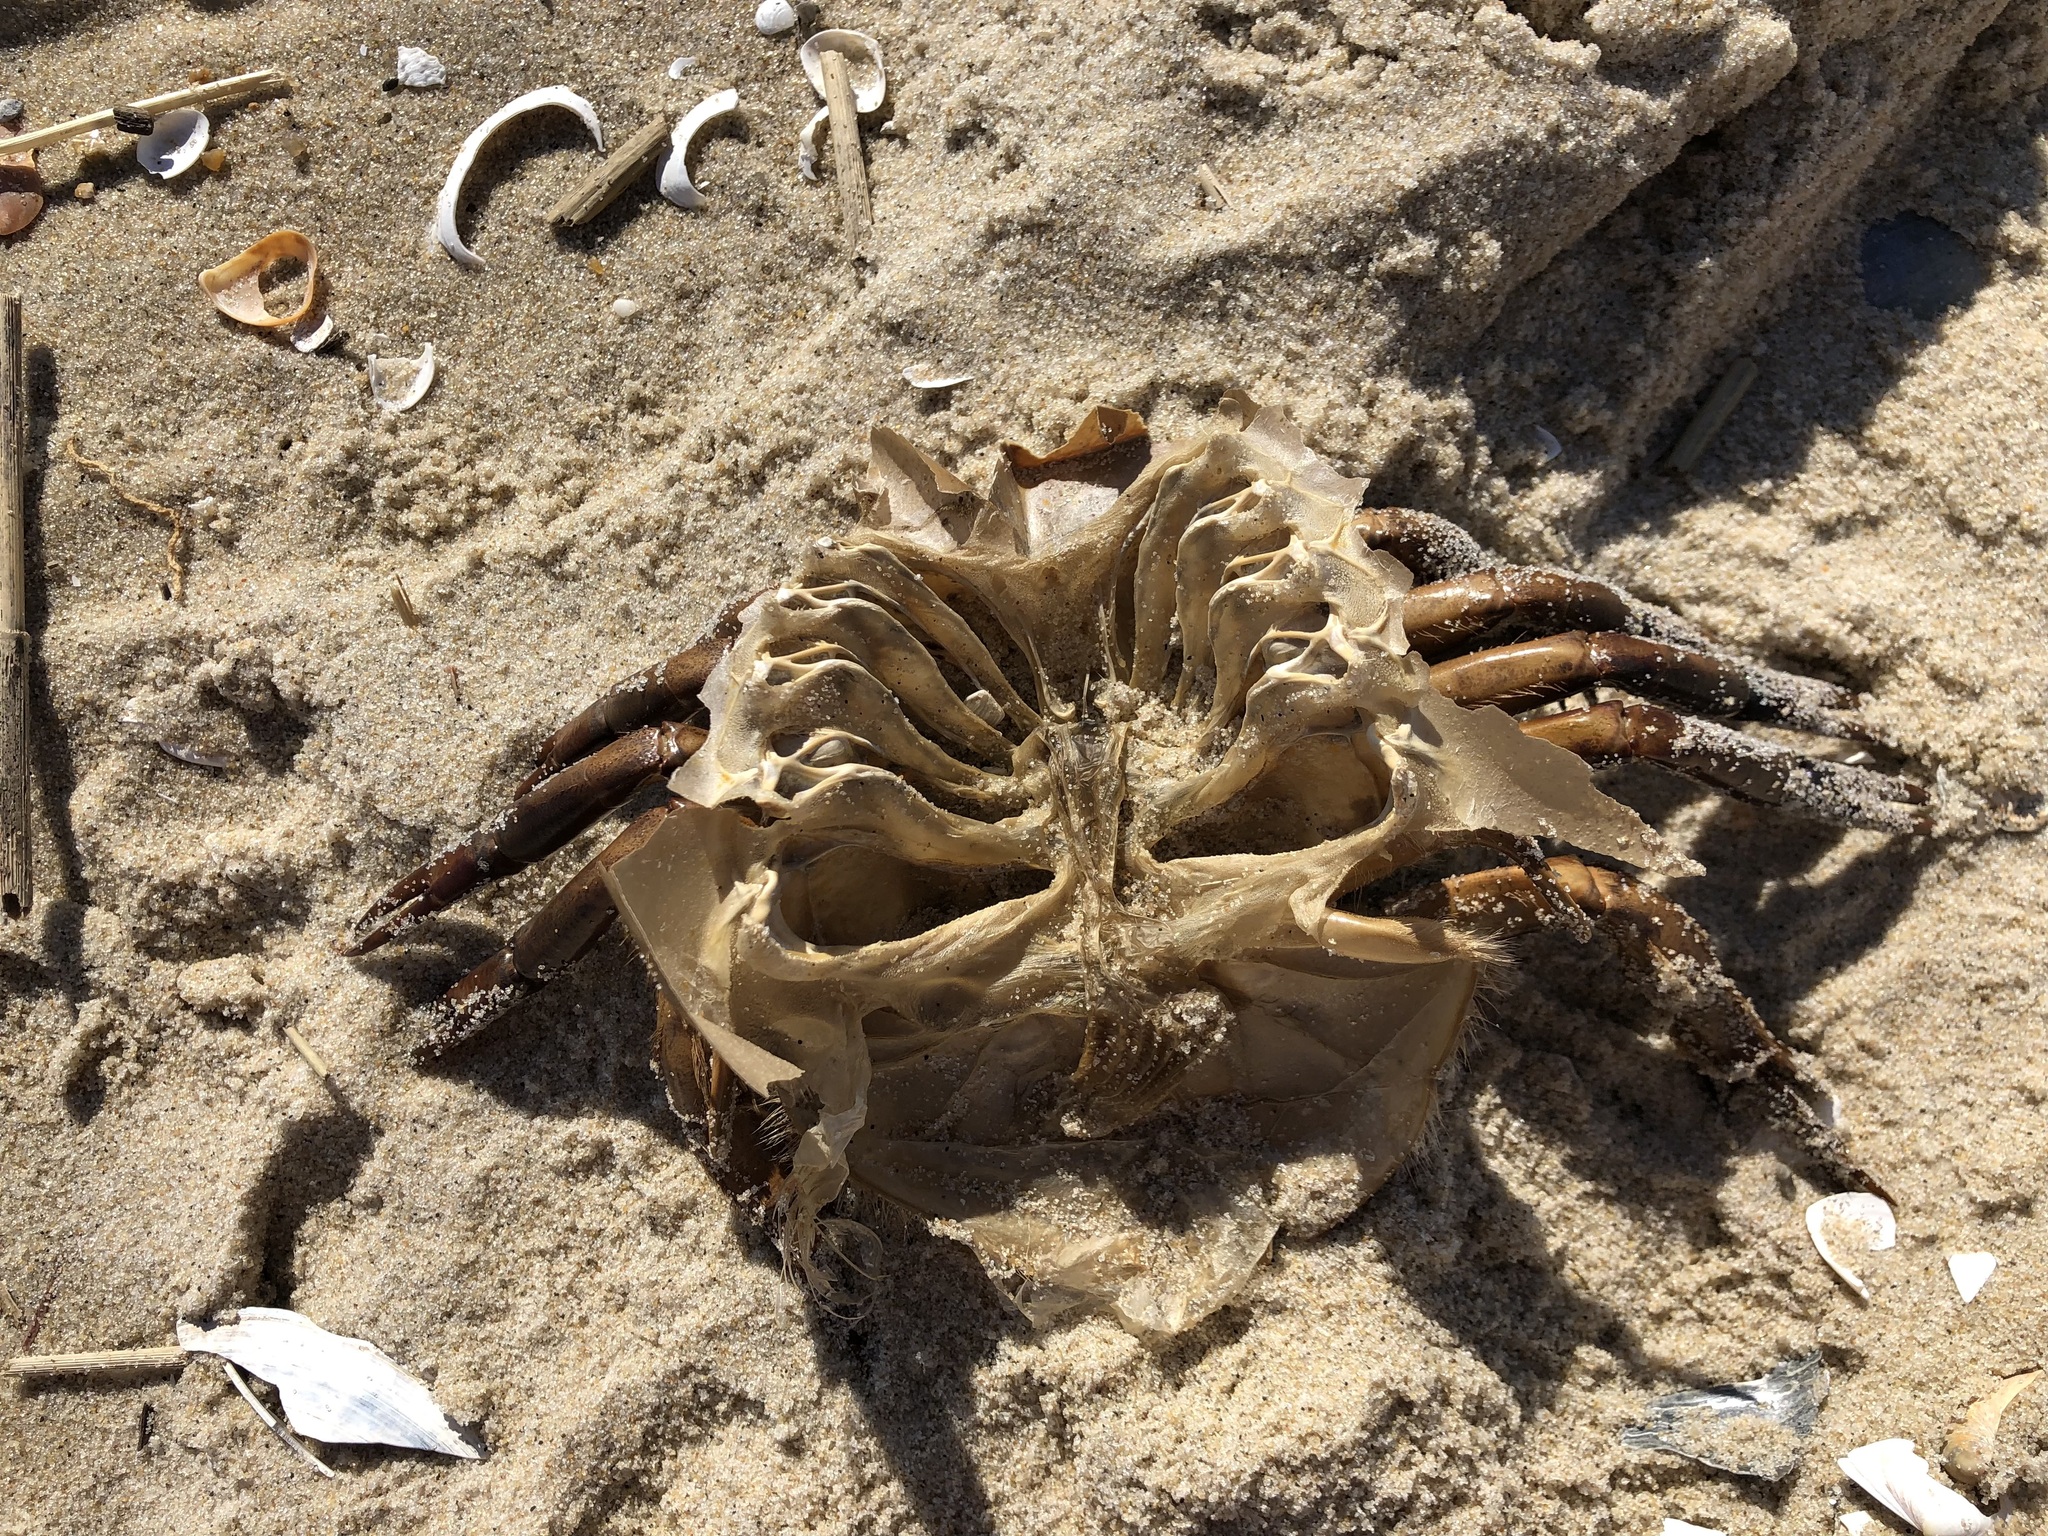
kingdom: Animalia
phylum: Arthropoda
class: Merostomata
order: Xiphosurida
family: Limulidae
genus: Limulus
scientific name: Limulus polyphemus
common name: Horseshoe crab
